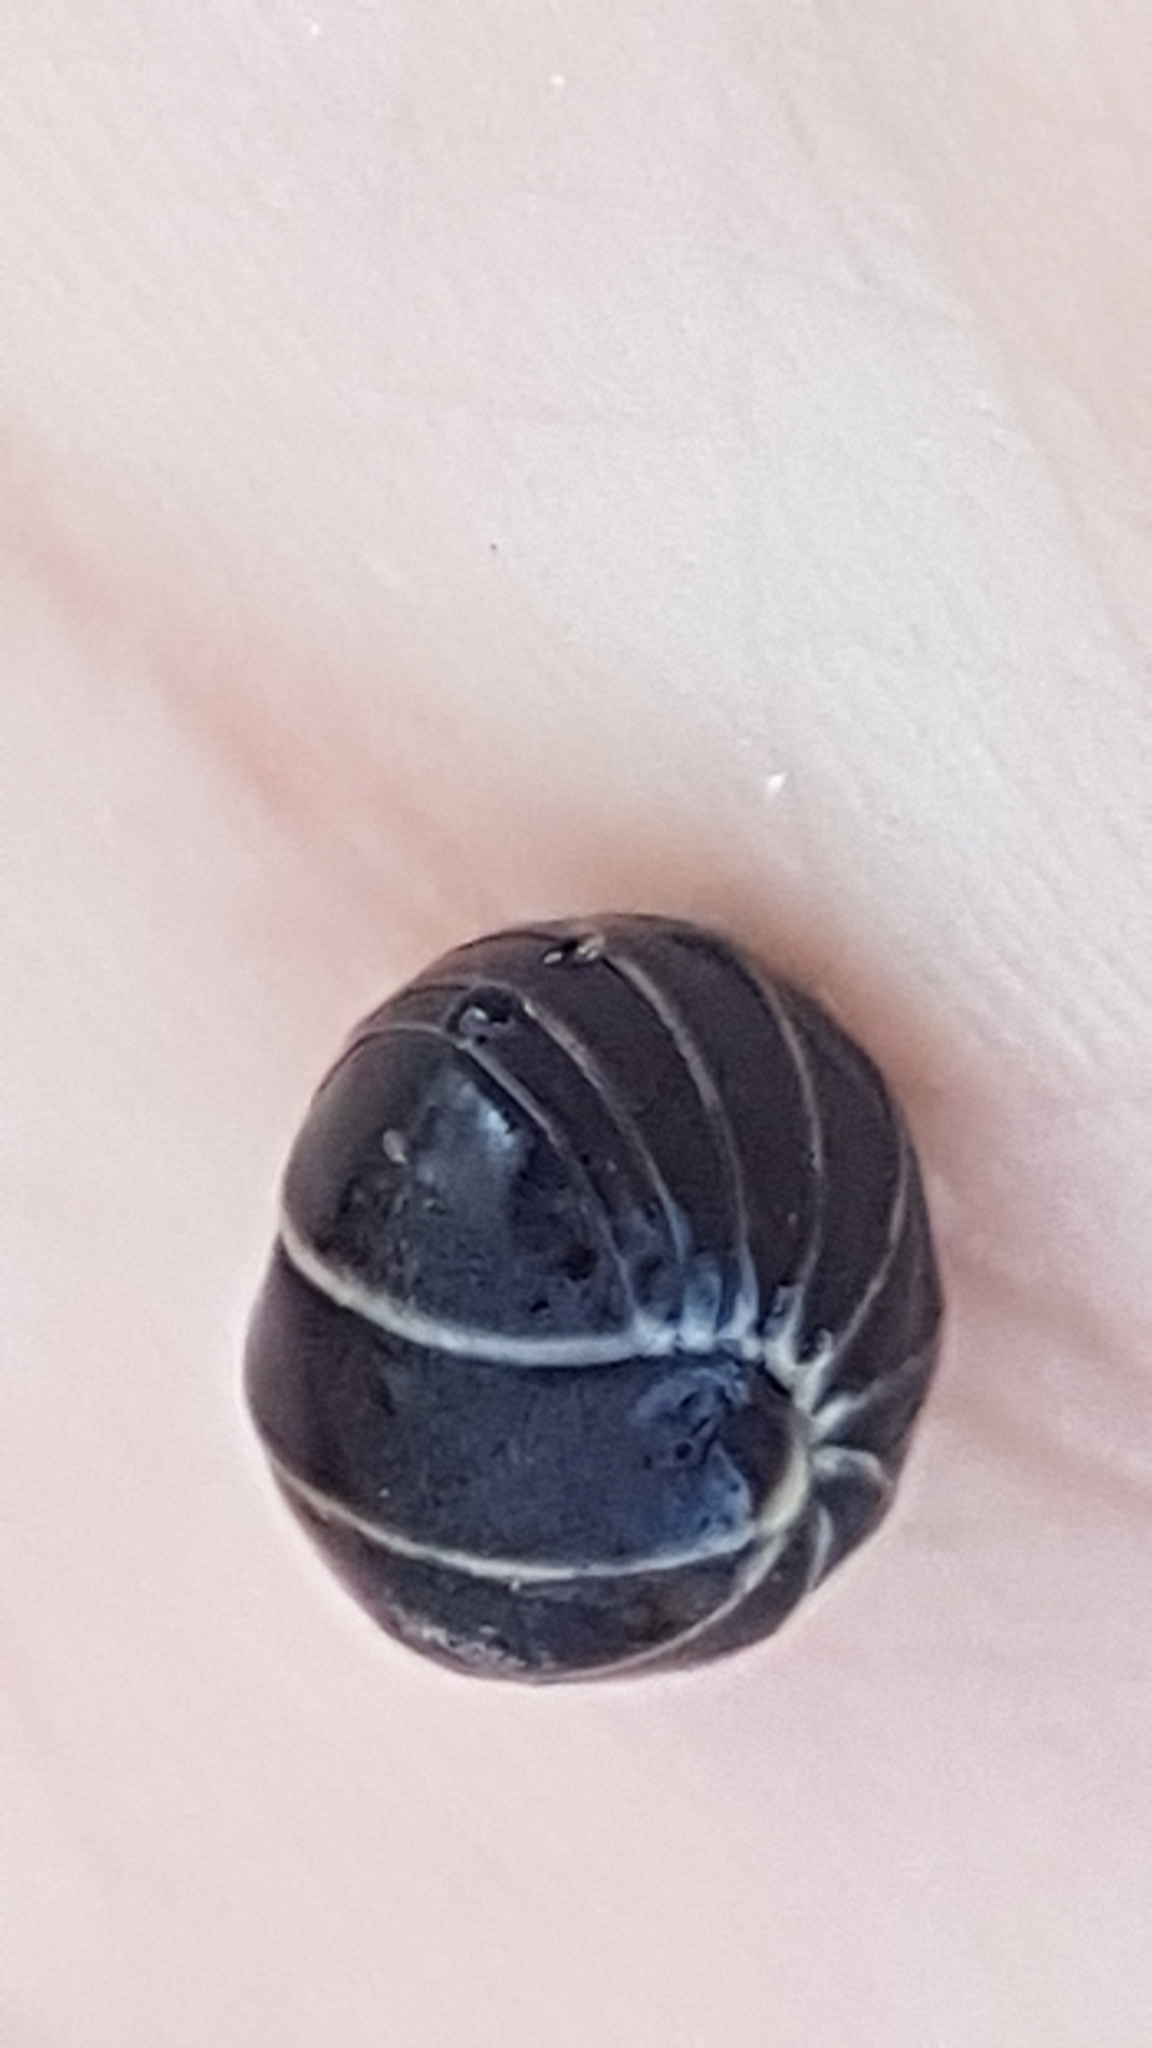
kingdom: Animalia
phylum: Arthropoda
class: Diplopoda
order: Glomerida
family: Glomeridae
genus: Glomeris
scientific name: Glomeris marginata
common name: Bordered pill millipede
